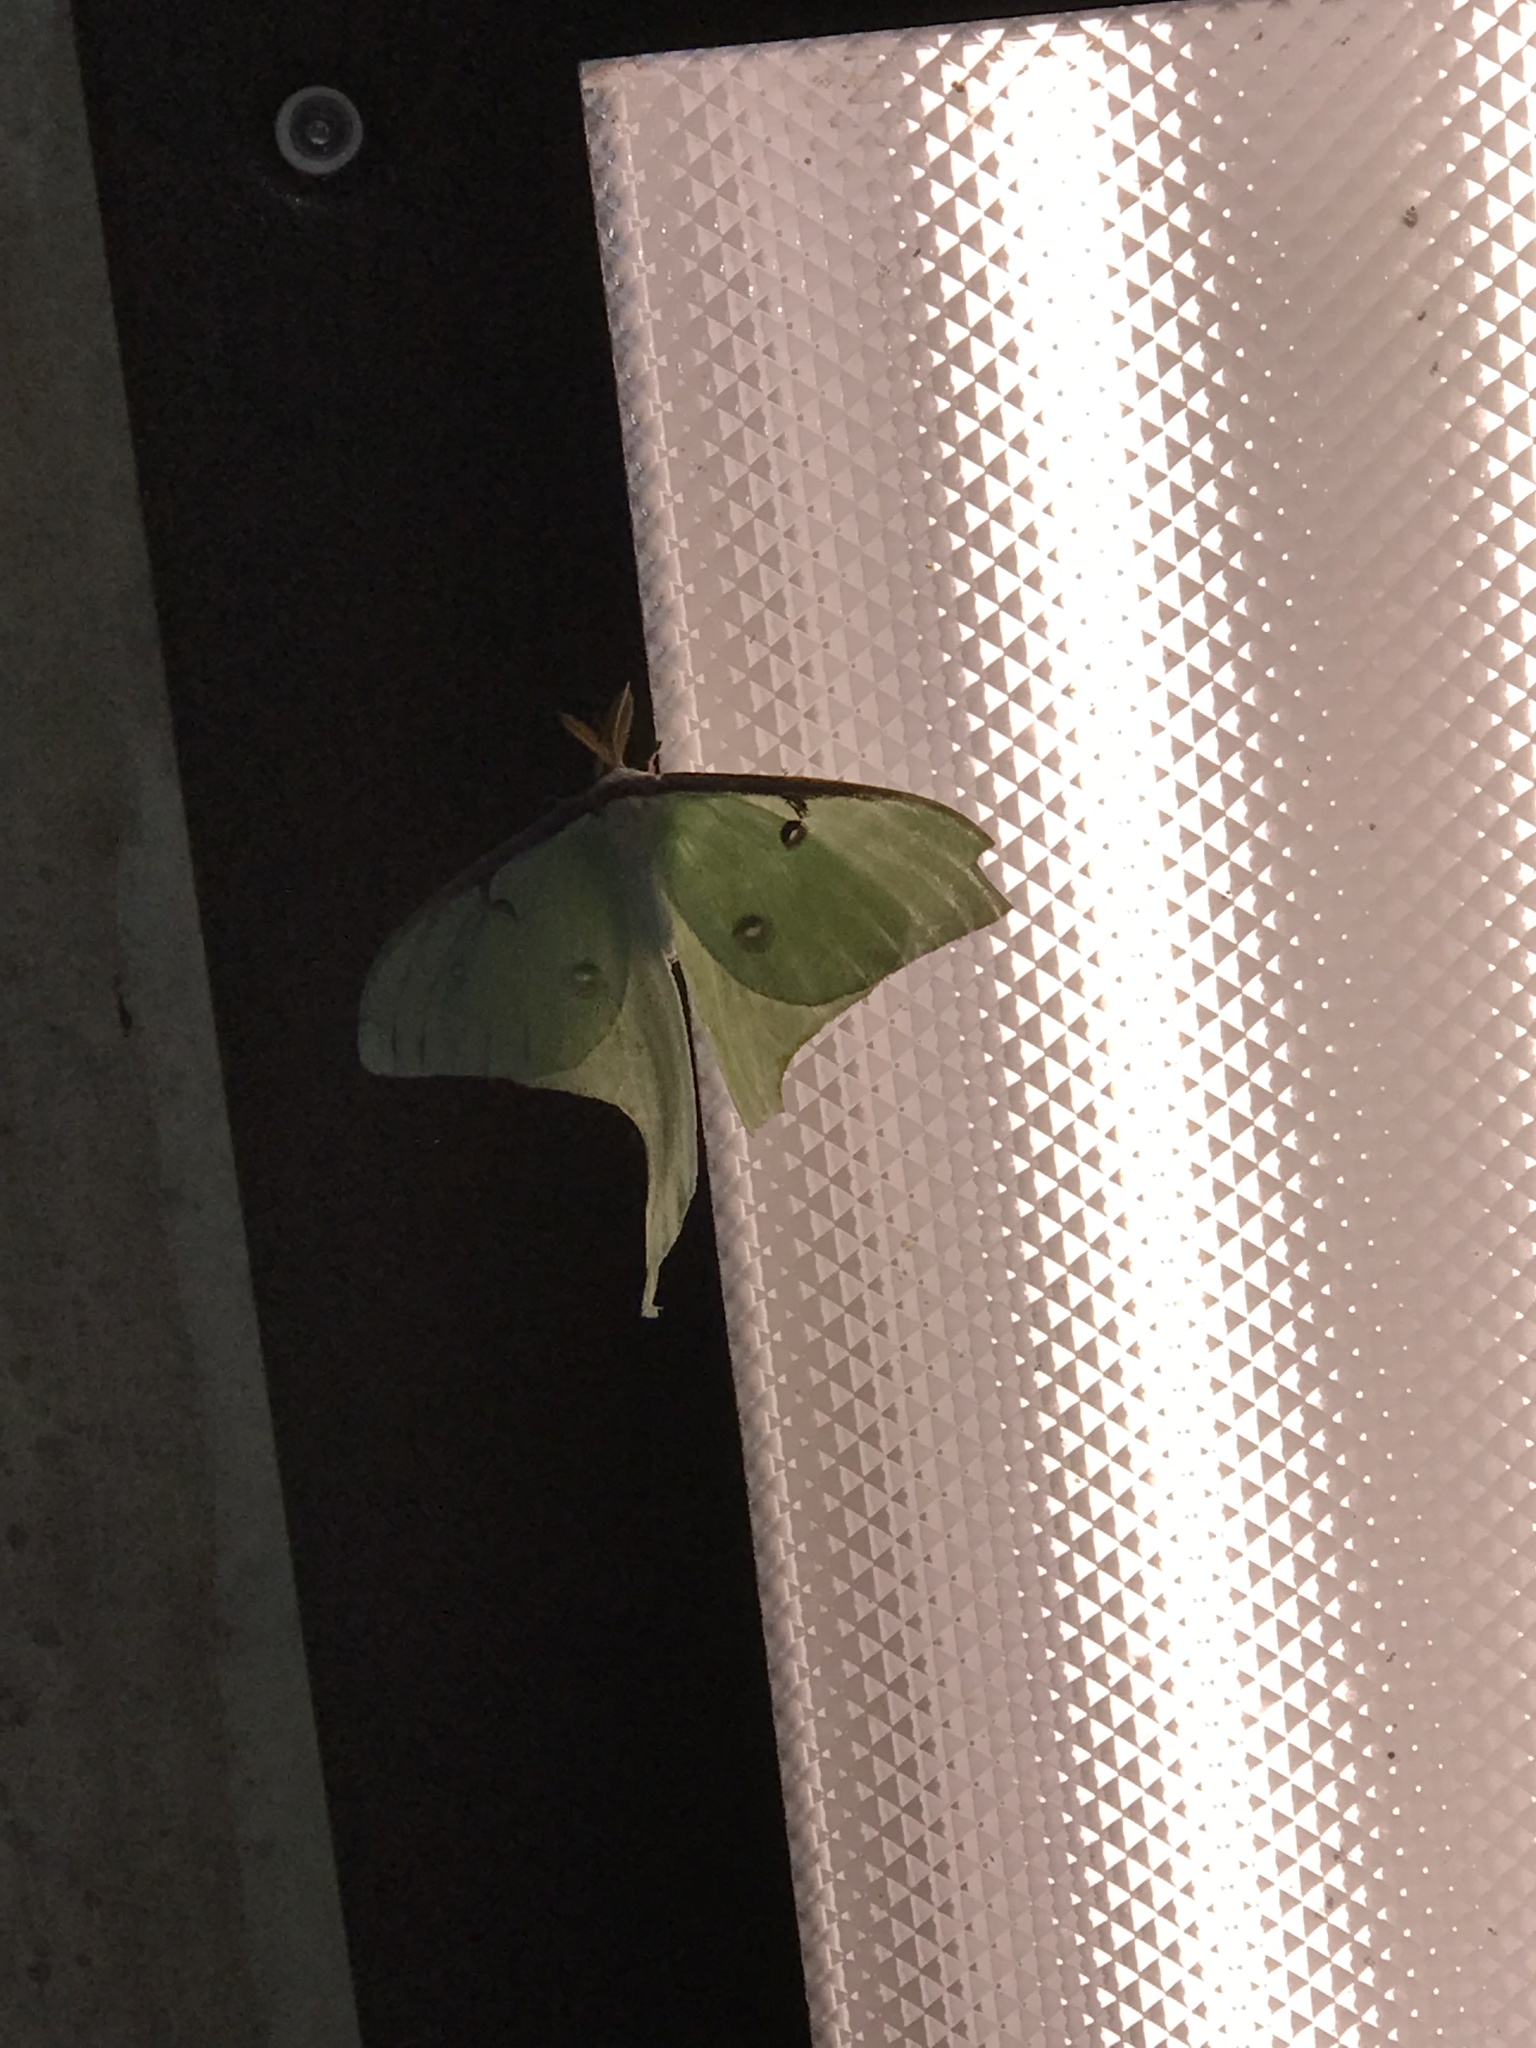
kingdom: Animalia
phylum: Arthropoda
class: Insecta
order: Lepidoptera
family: Saturniidae
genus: Actias
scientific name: Actias luna
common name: Luna moth
